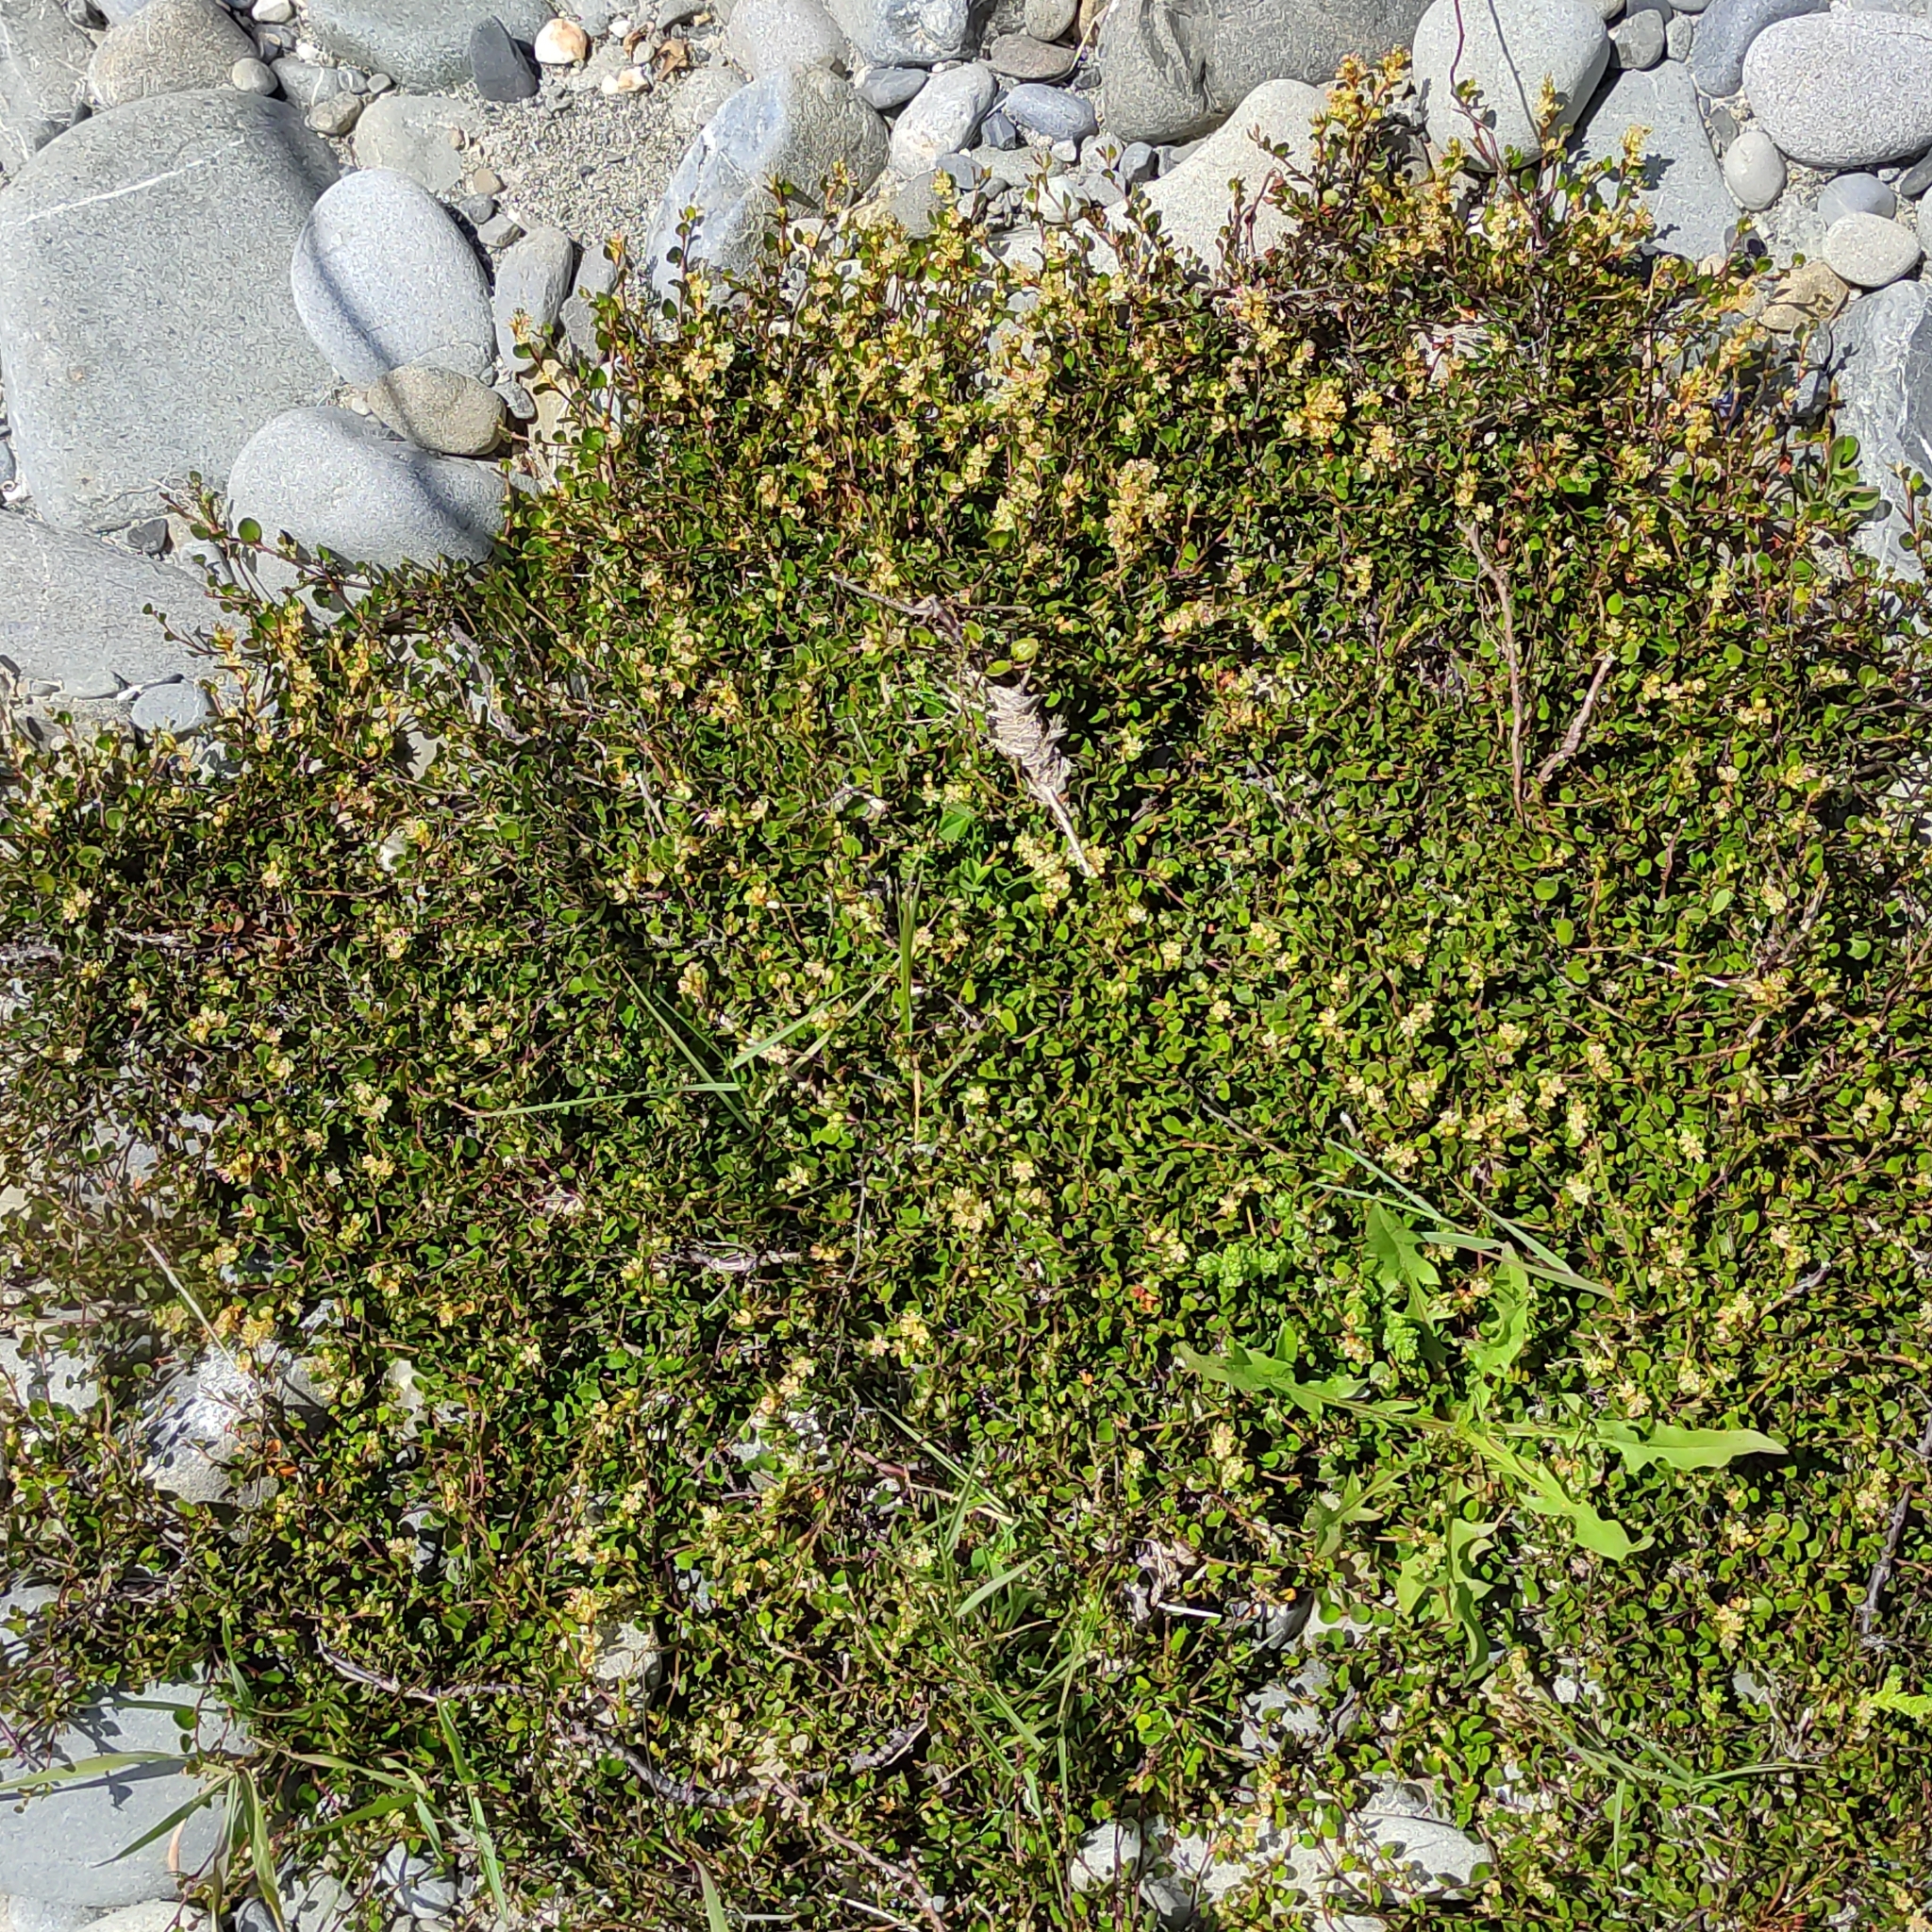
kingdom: Plantae
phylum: Tracheophyta
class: Magnoliopsida
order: Caryophyllales
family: Polygonaceae
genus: Muehlenbeckia
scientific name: Muehlenbeckia axillaris
